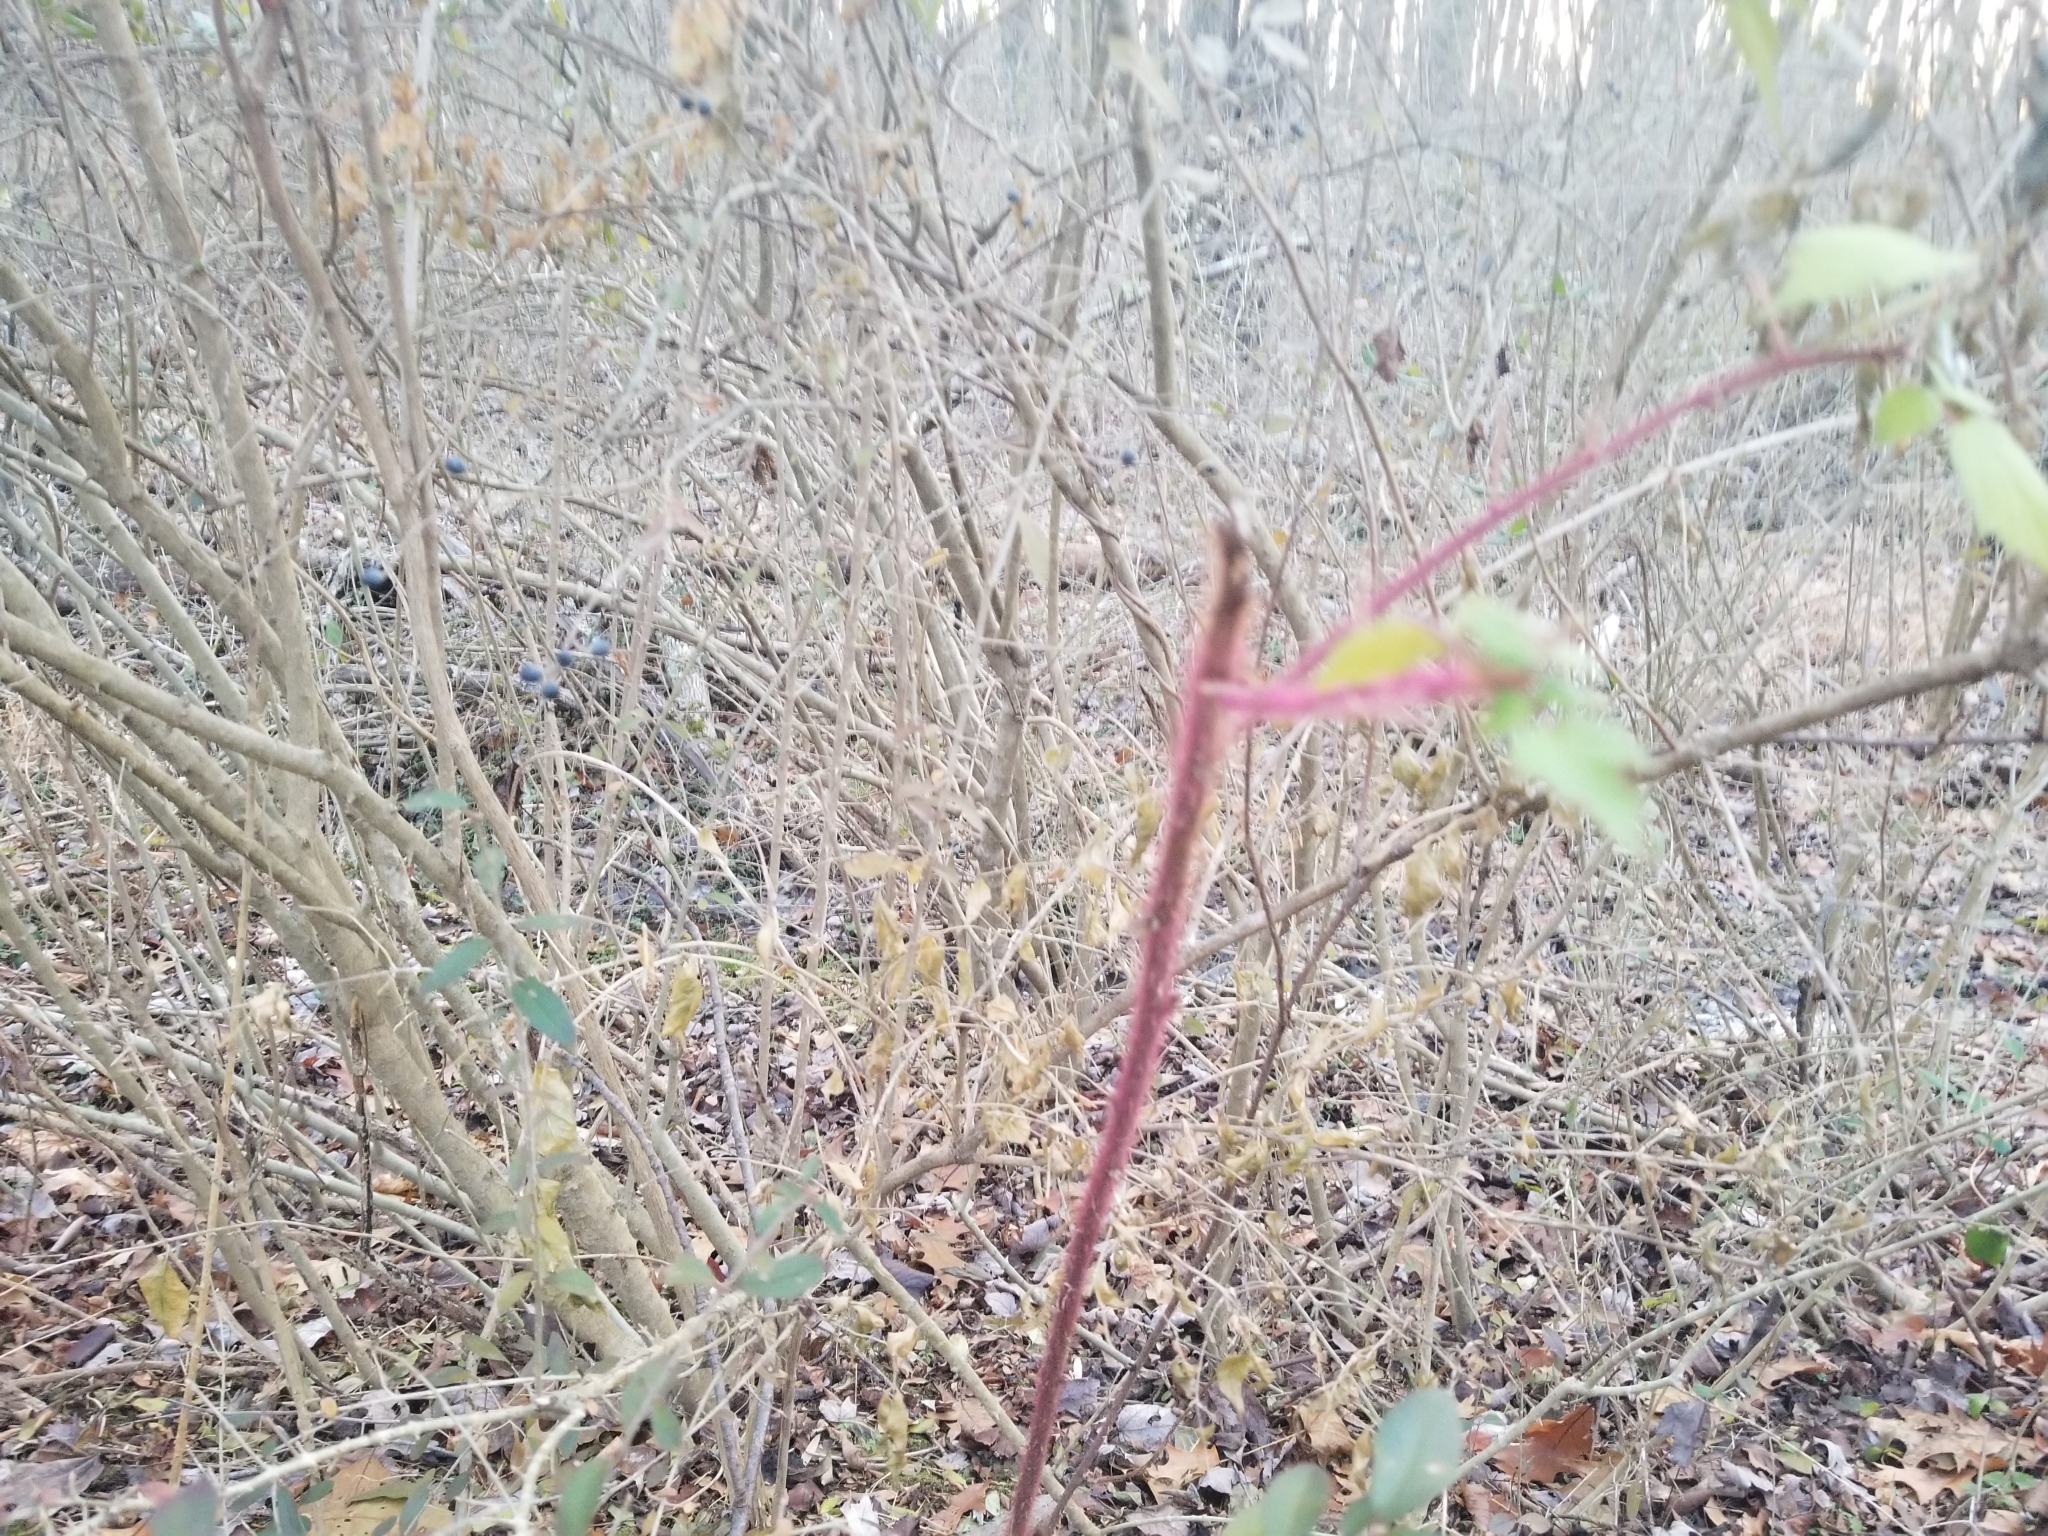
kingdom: Plantae
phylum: Tracheophyta
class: Magnoliopsida
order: Rosales
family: Rosaceae
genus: Rubus
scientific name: Rubus phoenicolasius
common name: Japanese wineberry
